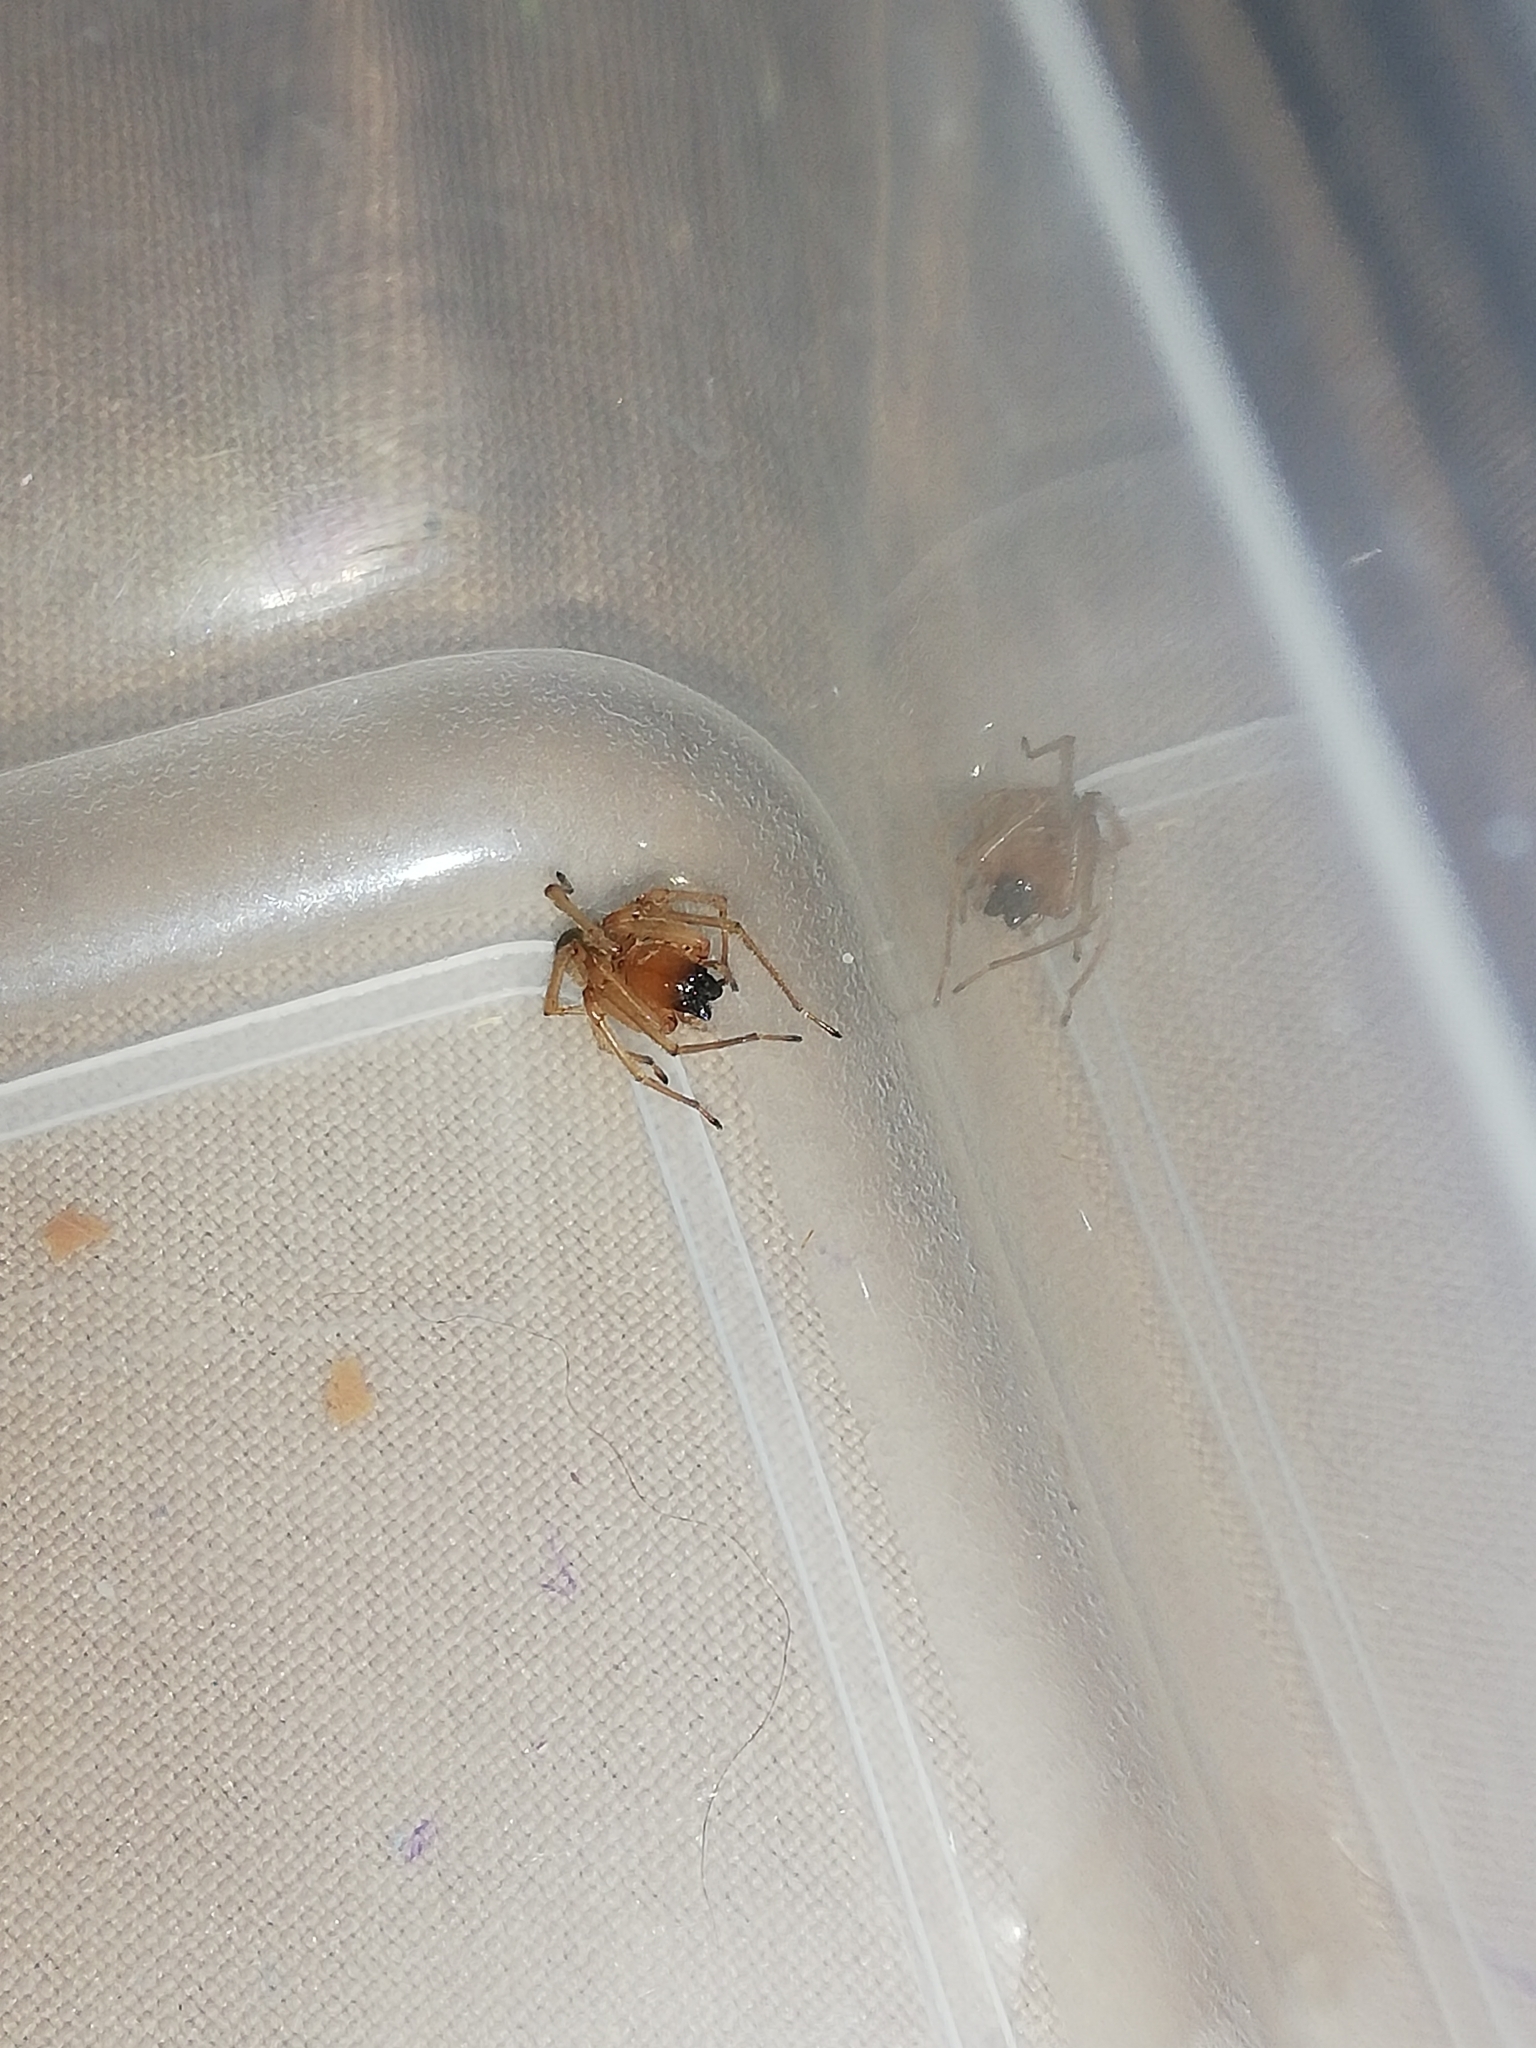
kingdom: Animalia
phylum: Arthropoda
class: Arachnida
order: Araneae
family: Cheiracanthiidae
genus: Cheiracanthium
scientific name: Cheiracanthium furculatum
